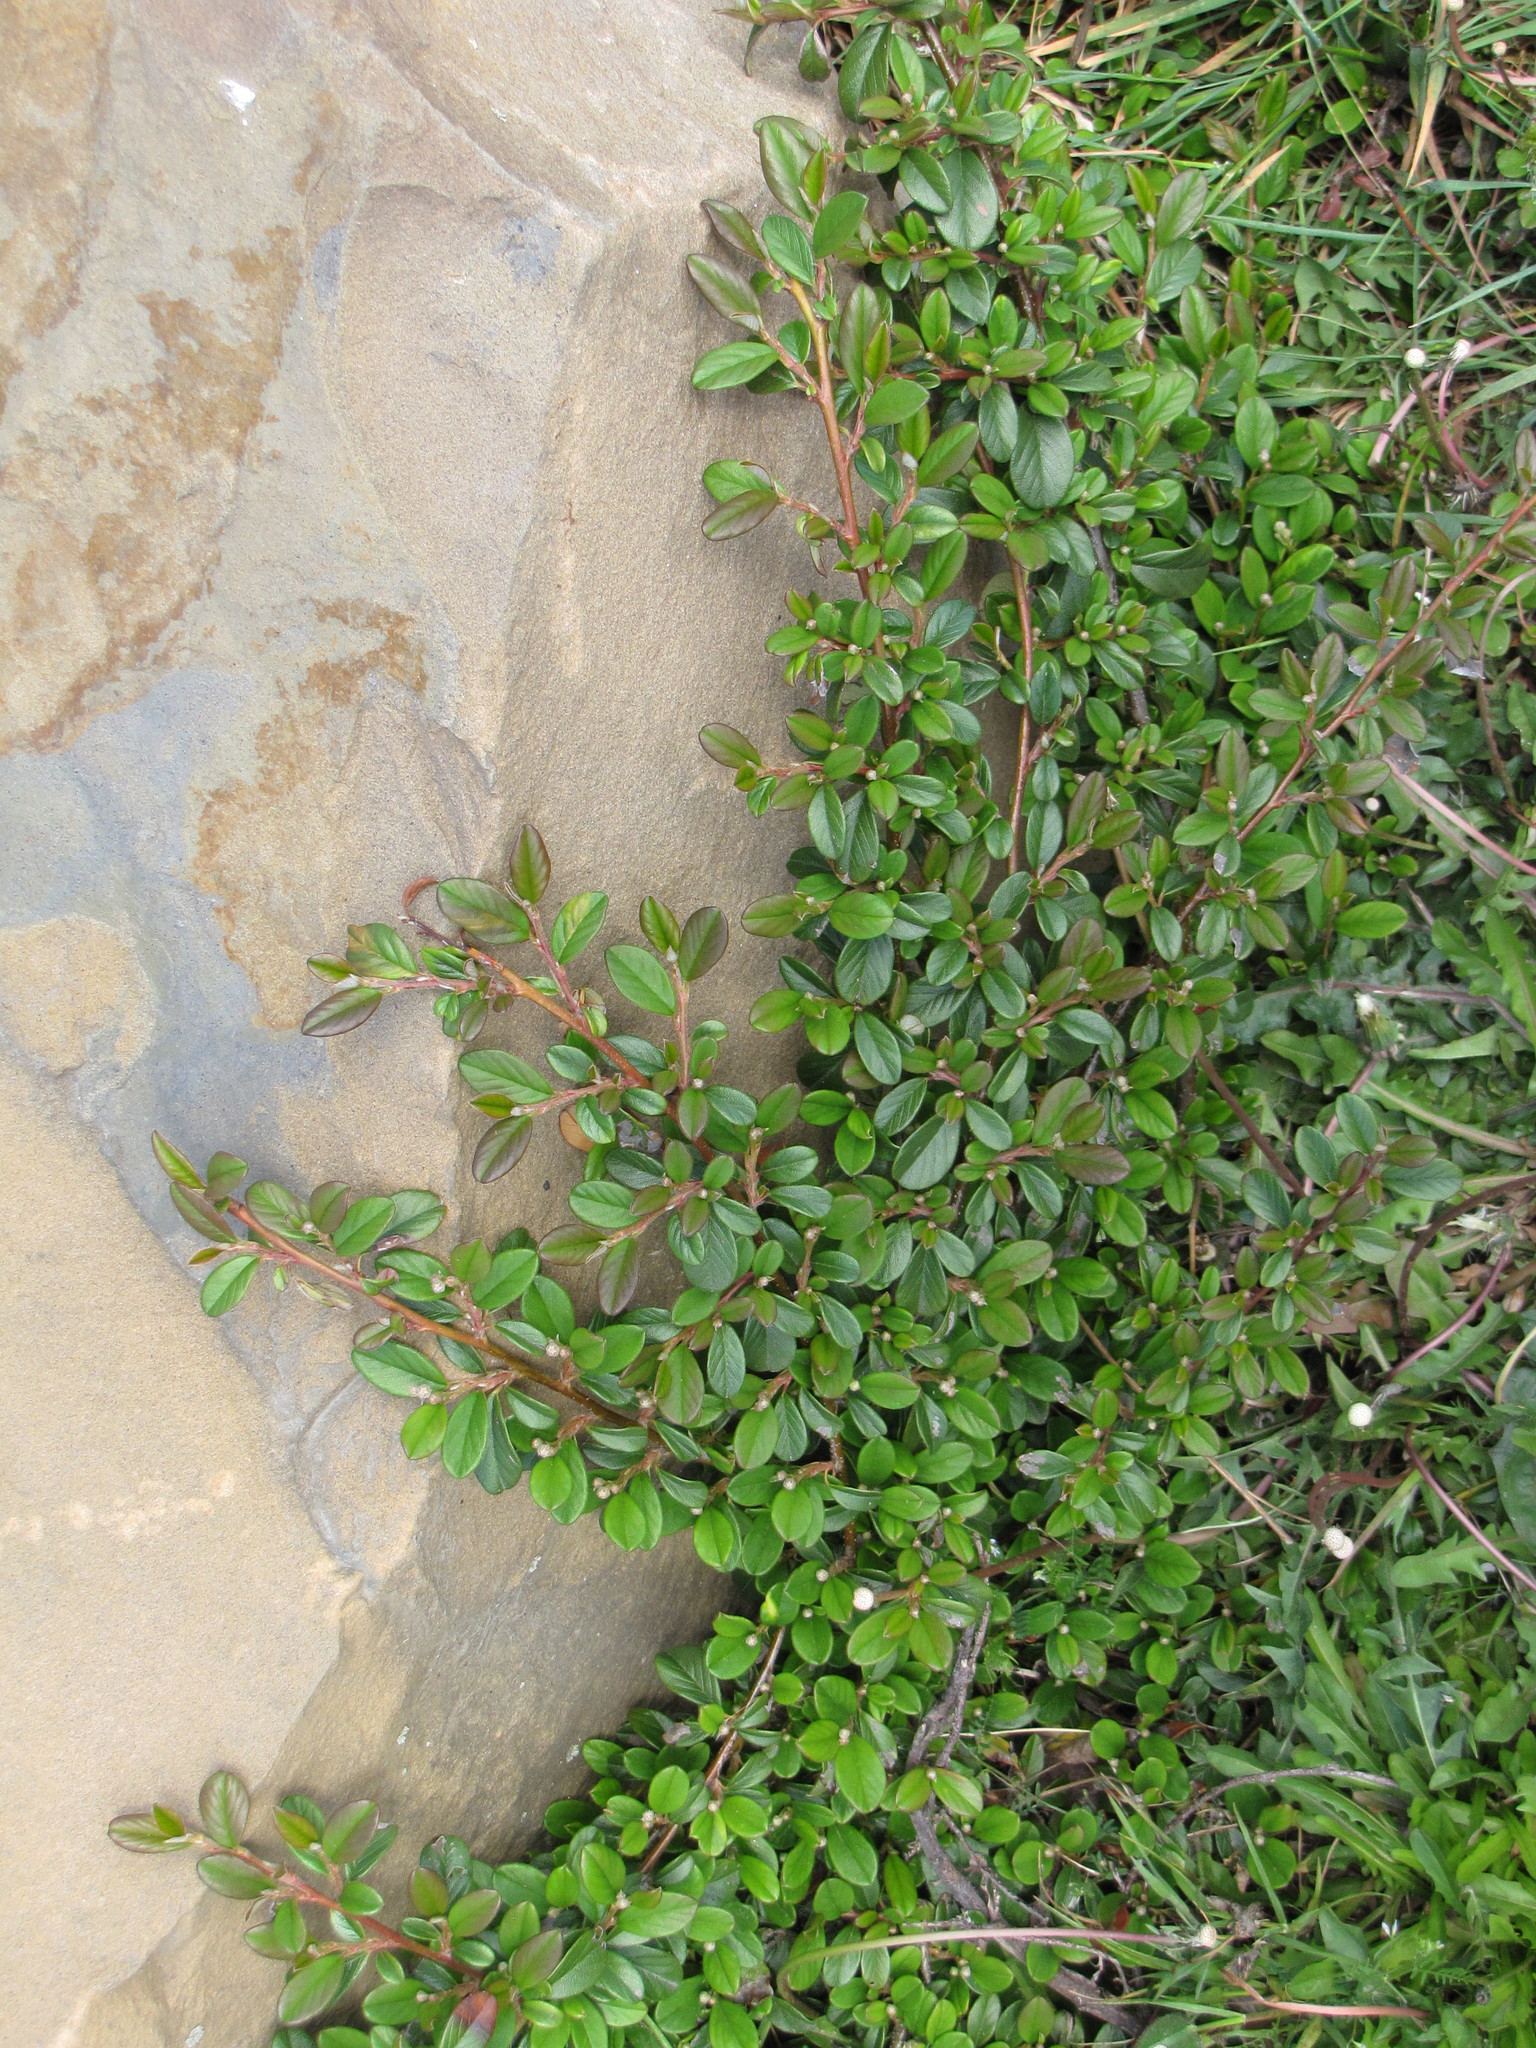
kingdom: Plantae
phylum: Tracheophyta
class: Magnoliopsida
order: Rosales
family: Rosaceae
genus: Cotoneaster
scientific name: Cotoneaster divaricatus
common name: Spreading cotoneaster
